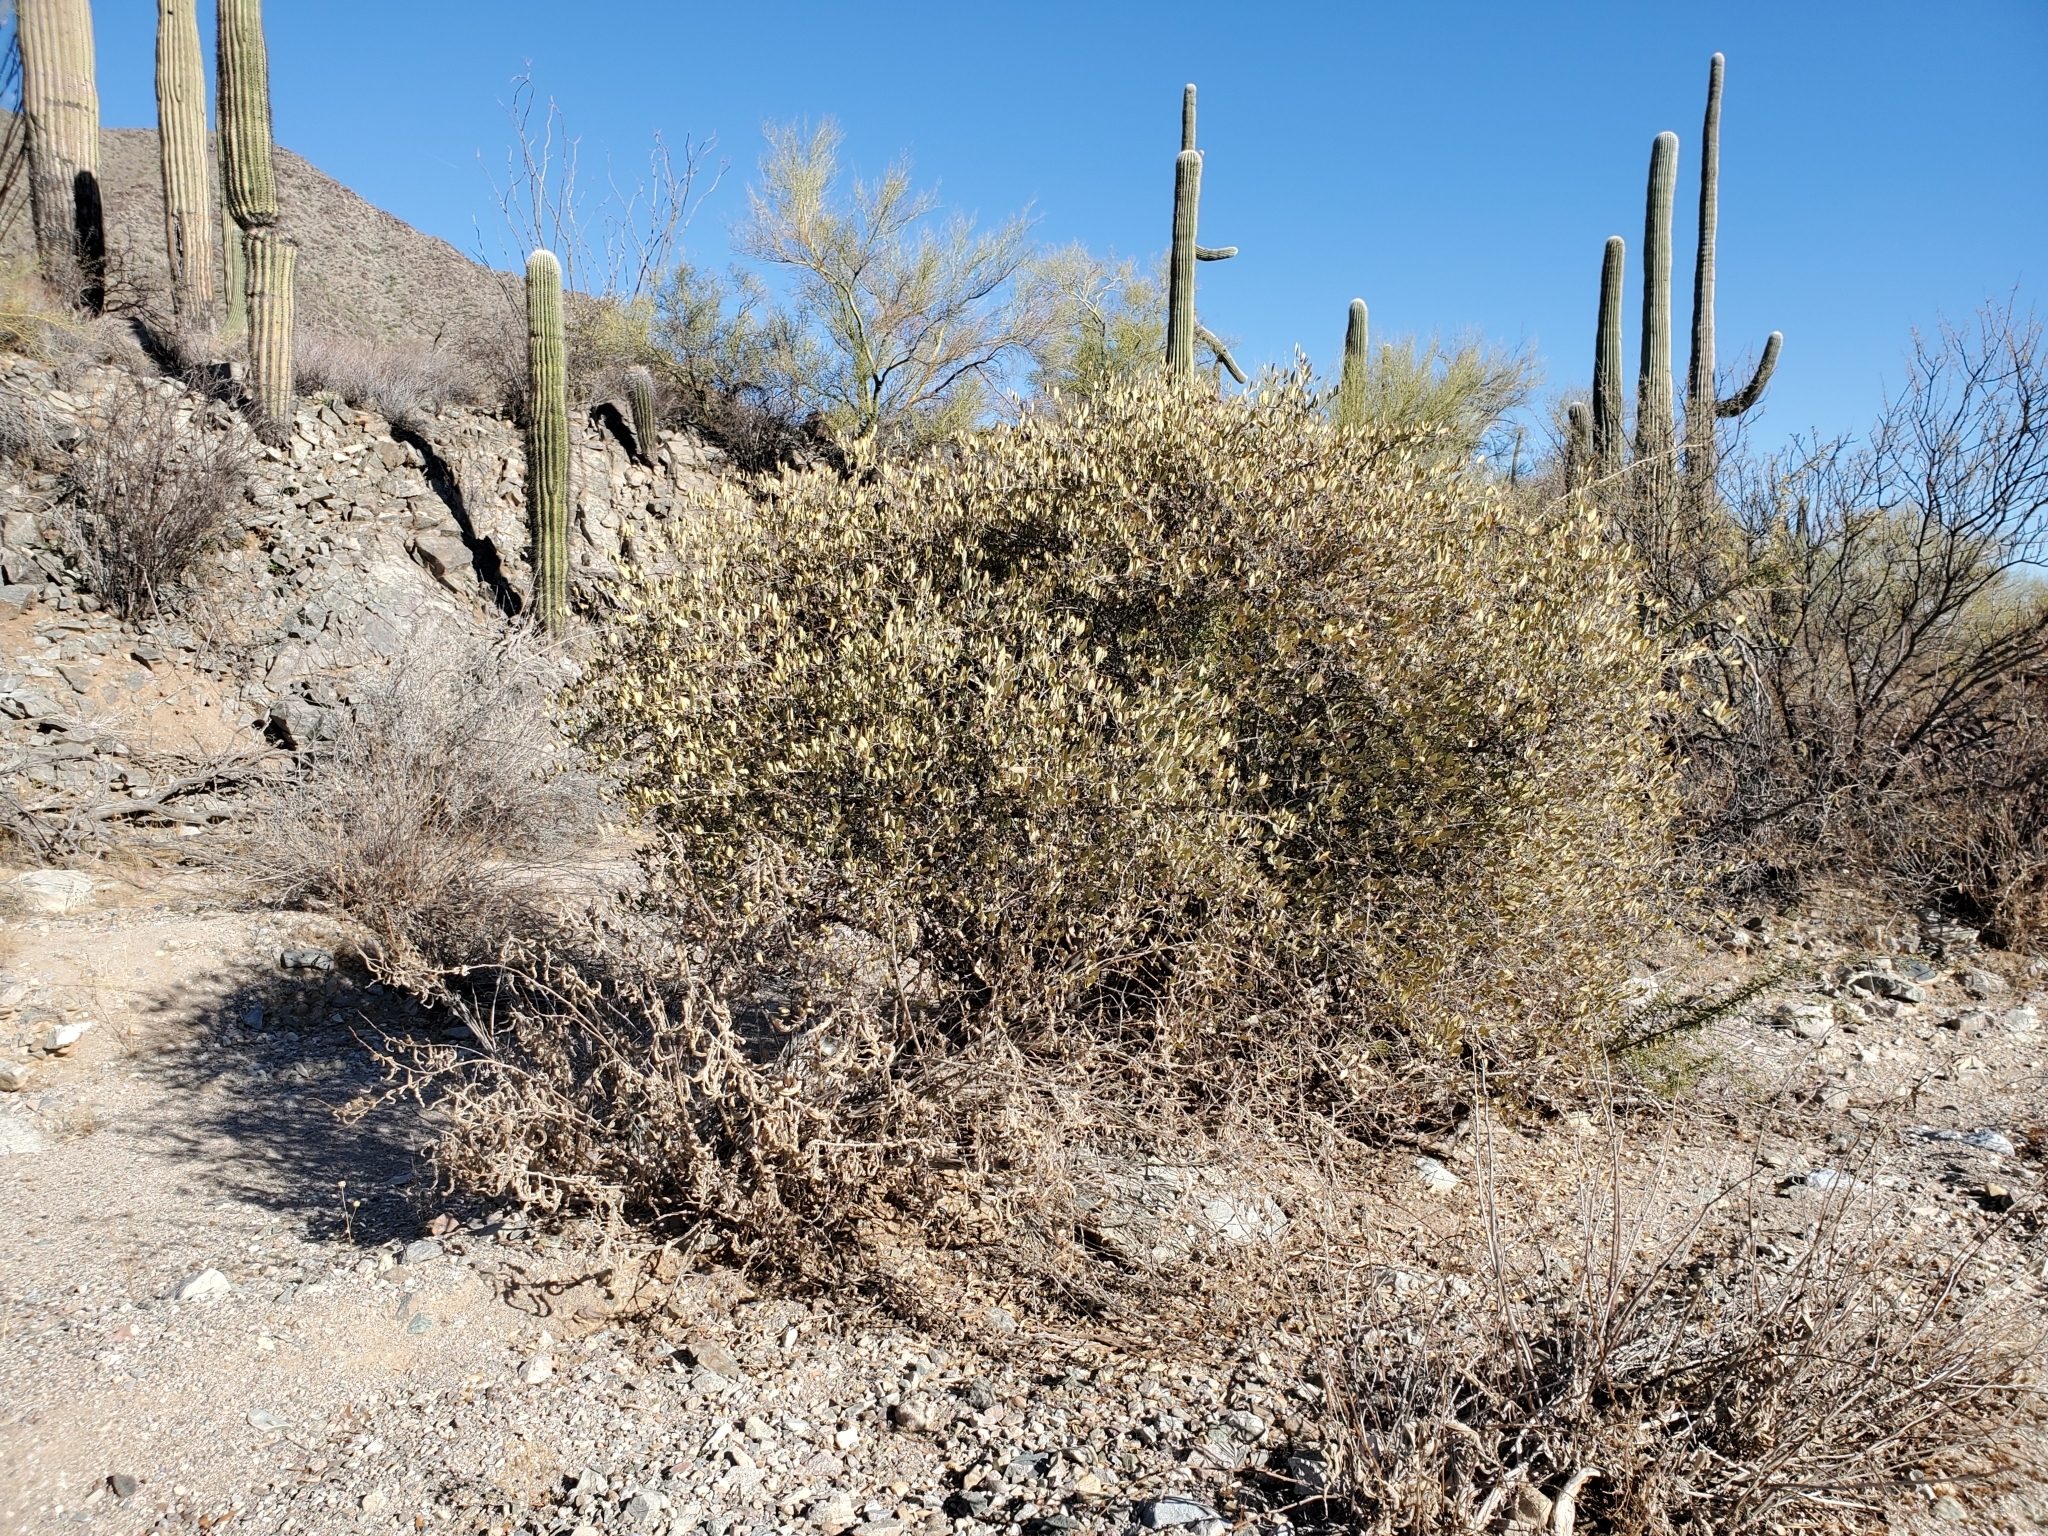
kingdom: Plantae
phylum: Tracheophyta
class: Magnoliopsida
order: Caryophyllales
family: Simmondsiaceae
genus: Simmondsia
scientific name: Simmondsia chinensis
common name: Jojoba
